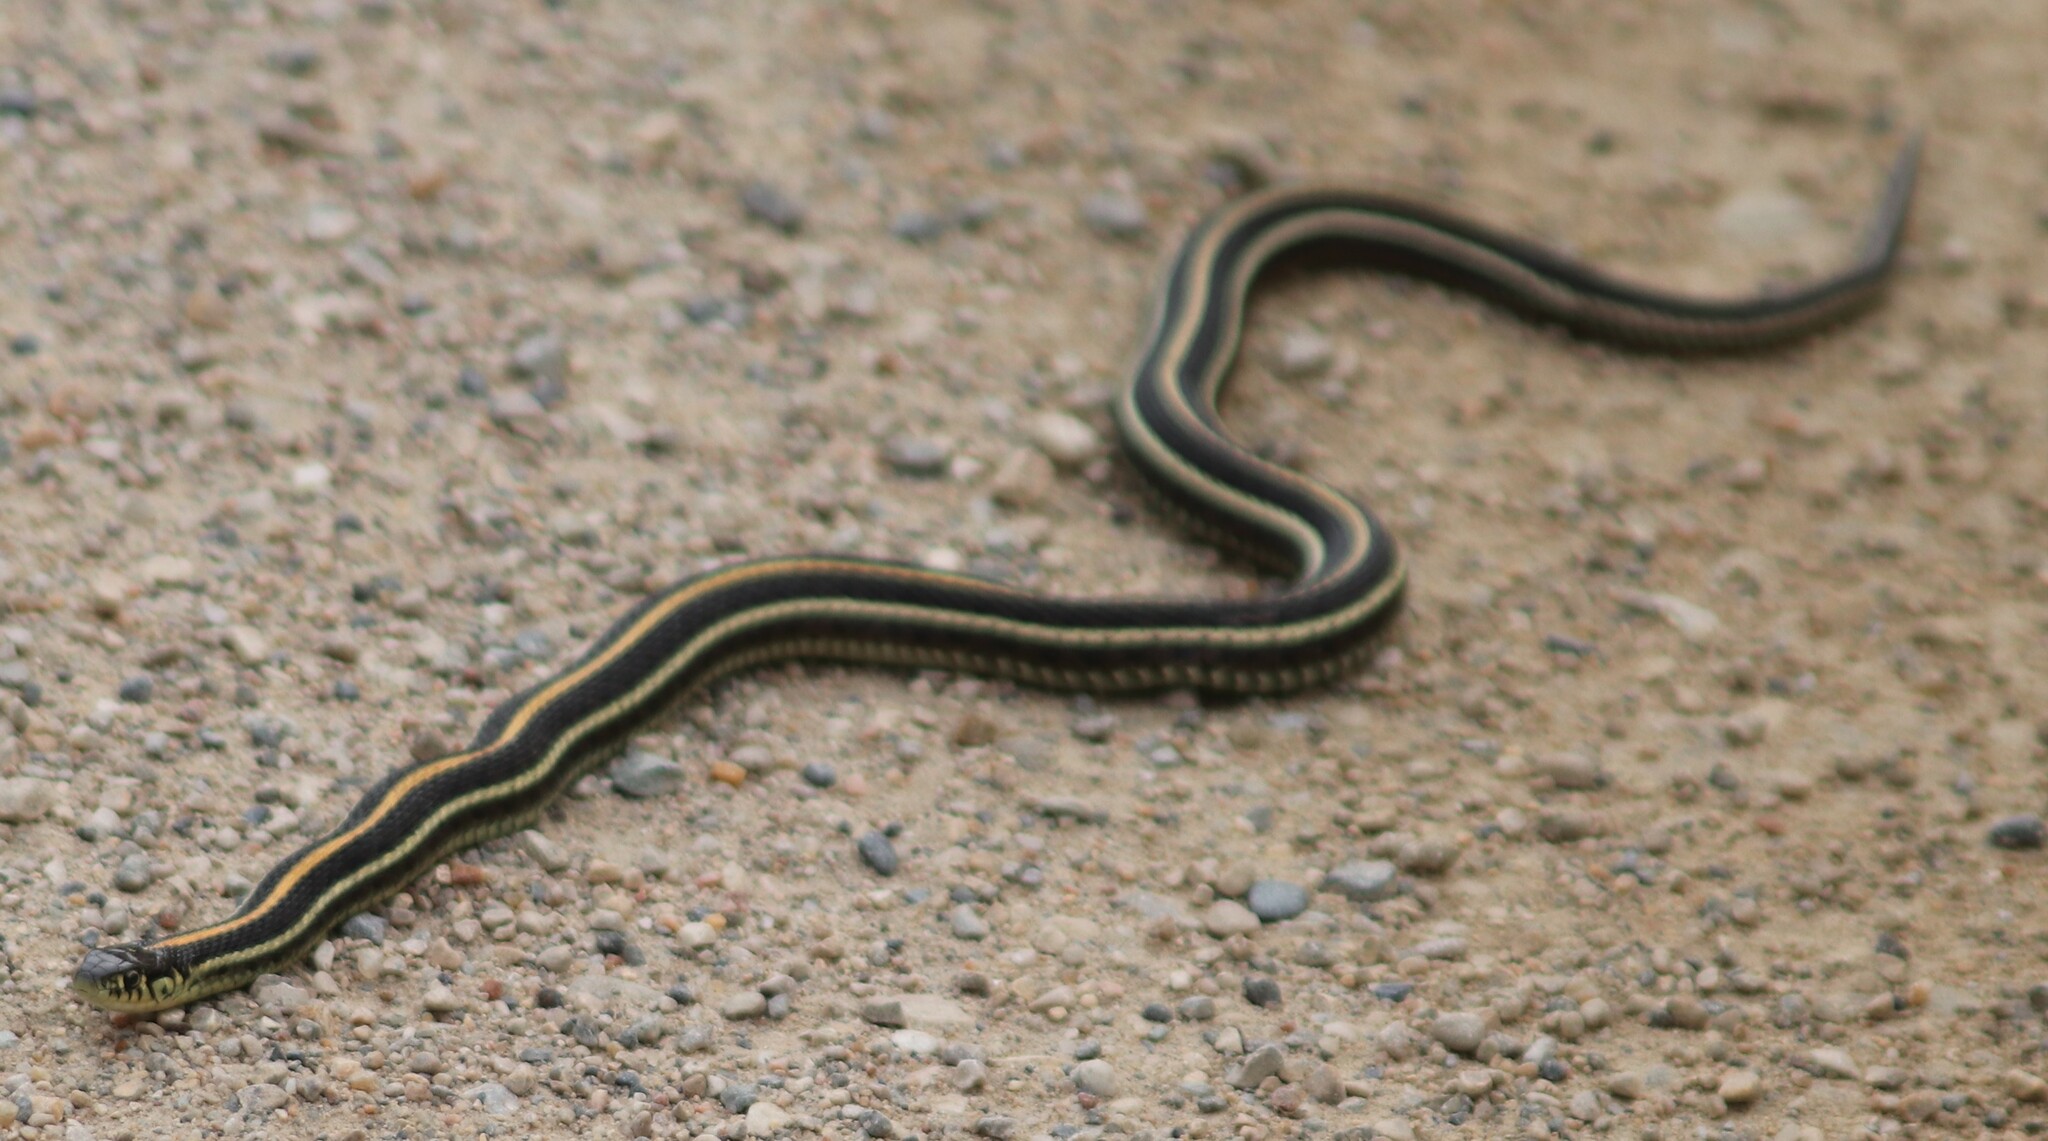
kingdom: Animalia
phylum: Chordata
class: Squamata
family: Colubridae
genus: Thamnophis
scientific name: Thamnophis radix
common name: Plains garter snake
